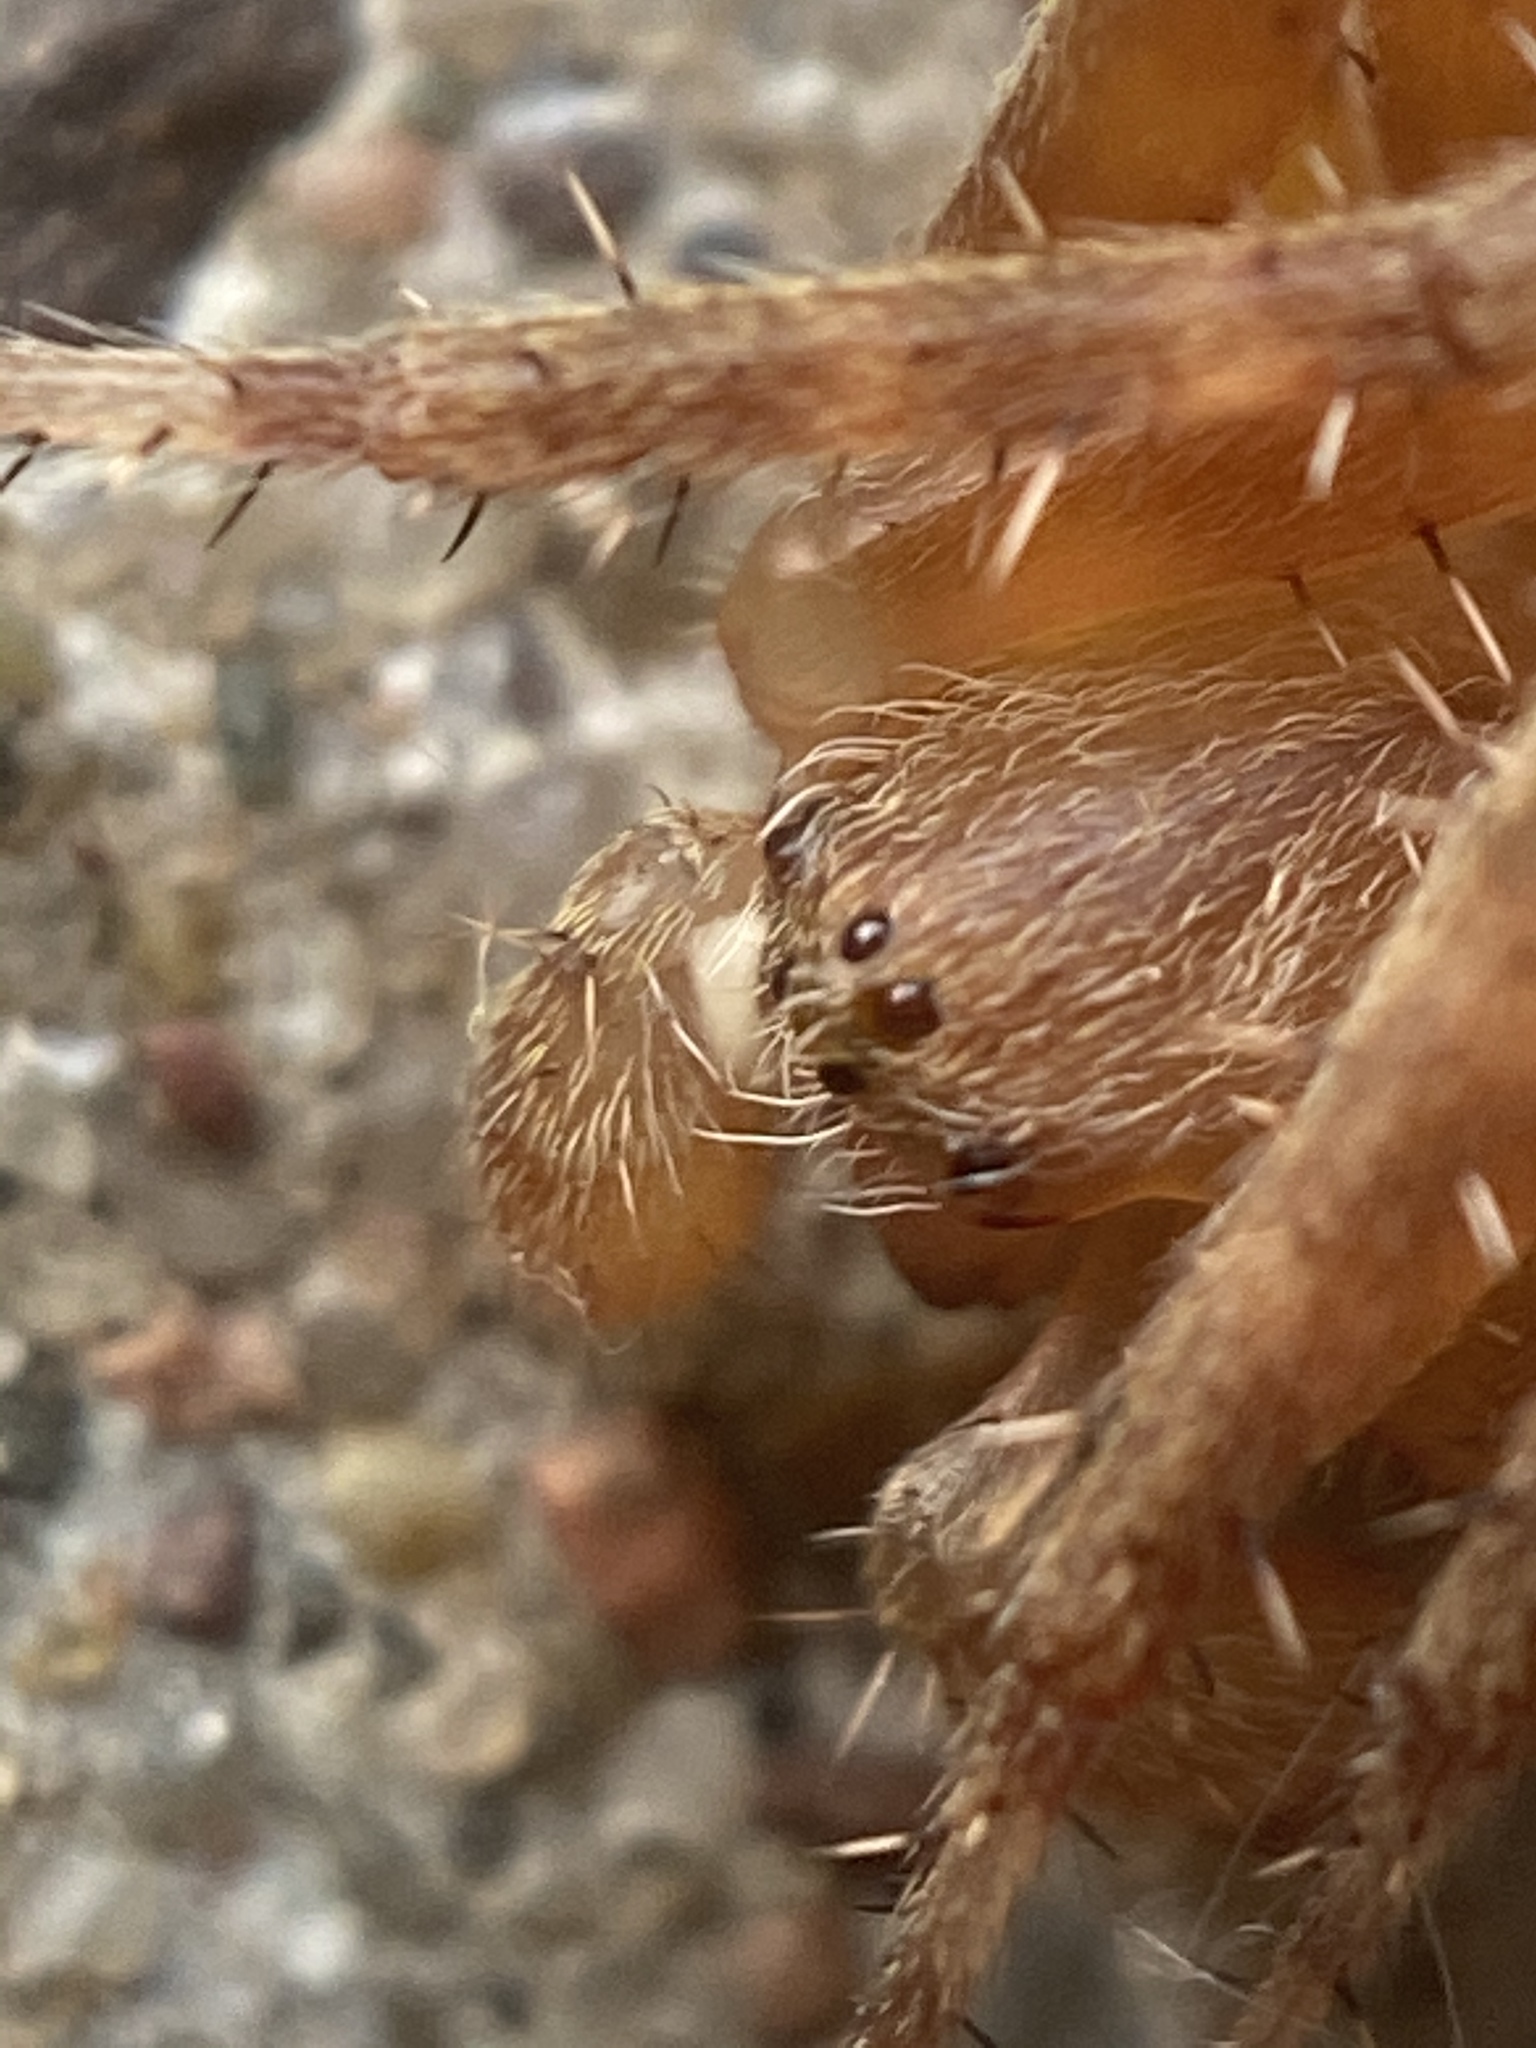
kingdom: Animalia
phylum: Arthropoda
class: Arachnida
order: Araneae
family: Araneidae
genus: Neoscona
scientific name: Neoscona arabesca
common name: Orb weavers
